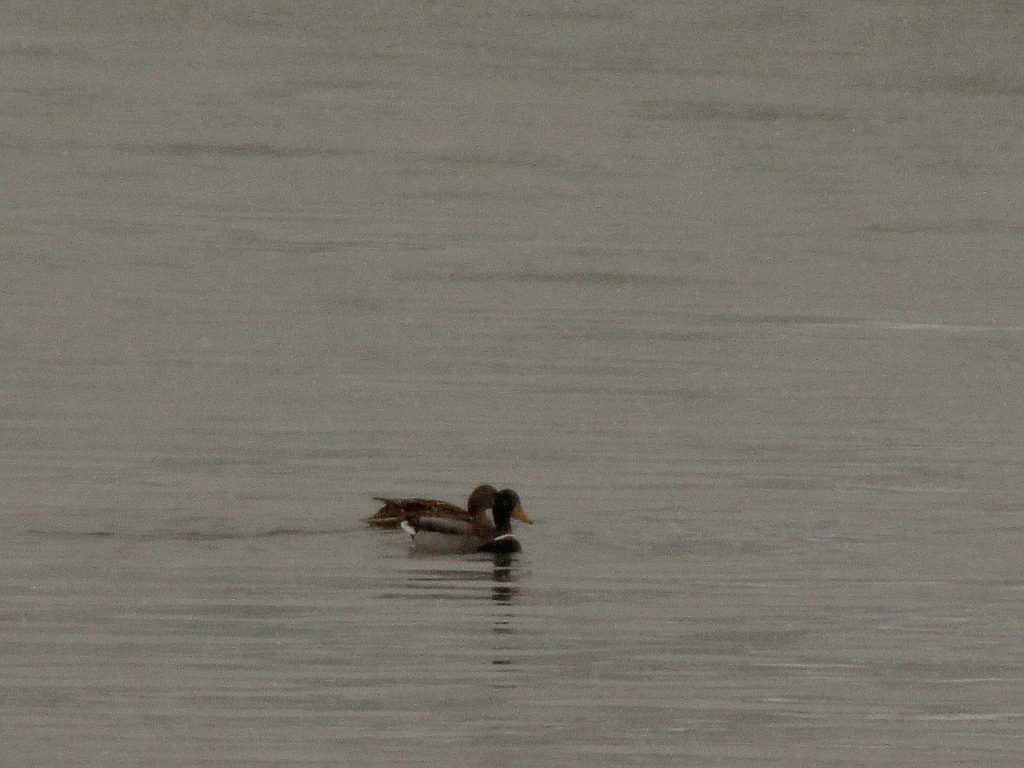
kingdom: Animalia
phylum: Chordata
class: Aves
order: Anseriformes
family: Anatidae
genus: Anas
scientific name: Anas platyrhynchos
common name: Mallard
